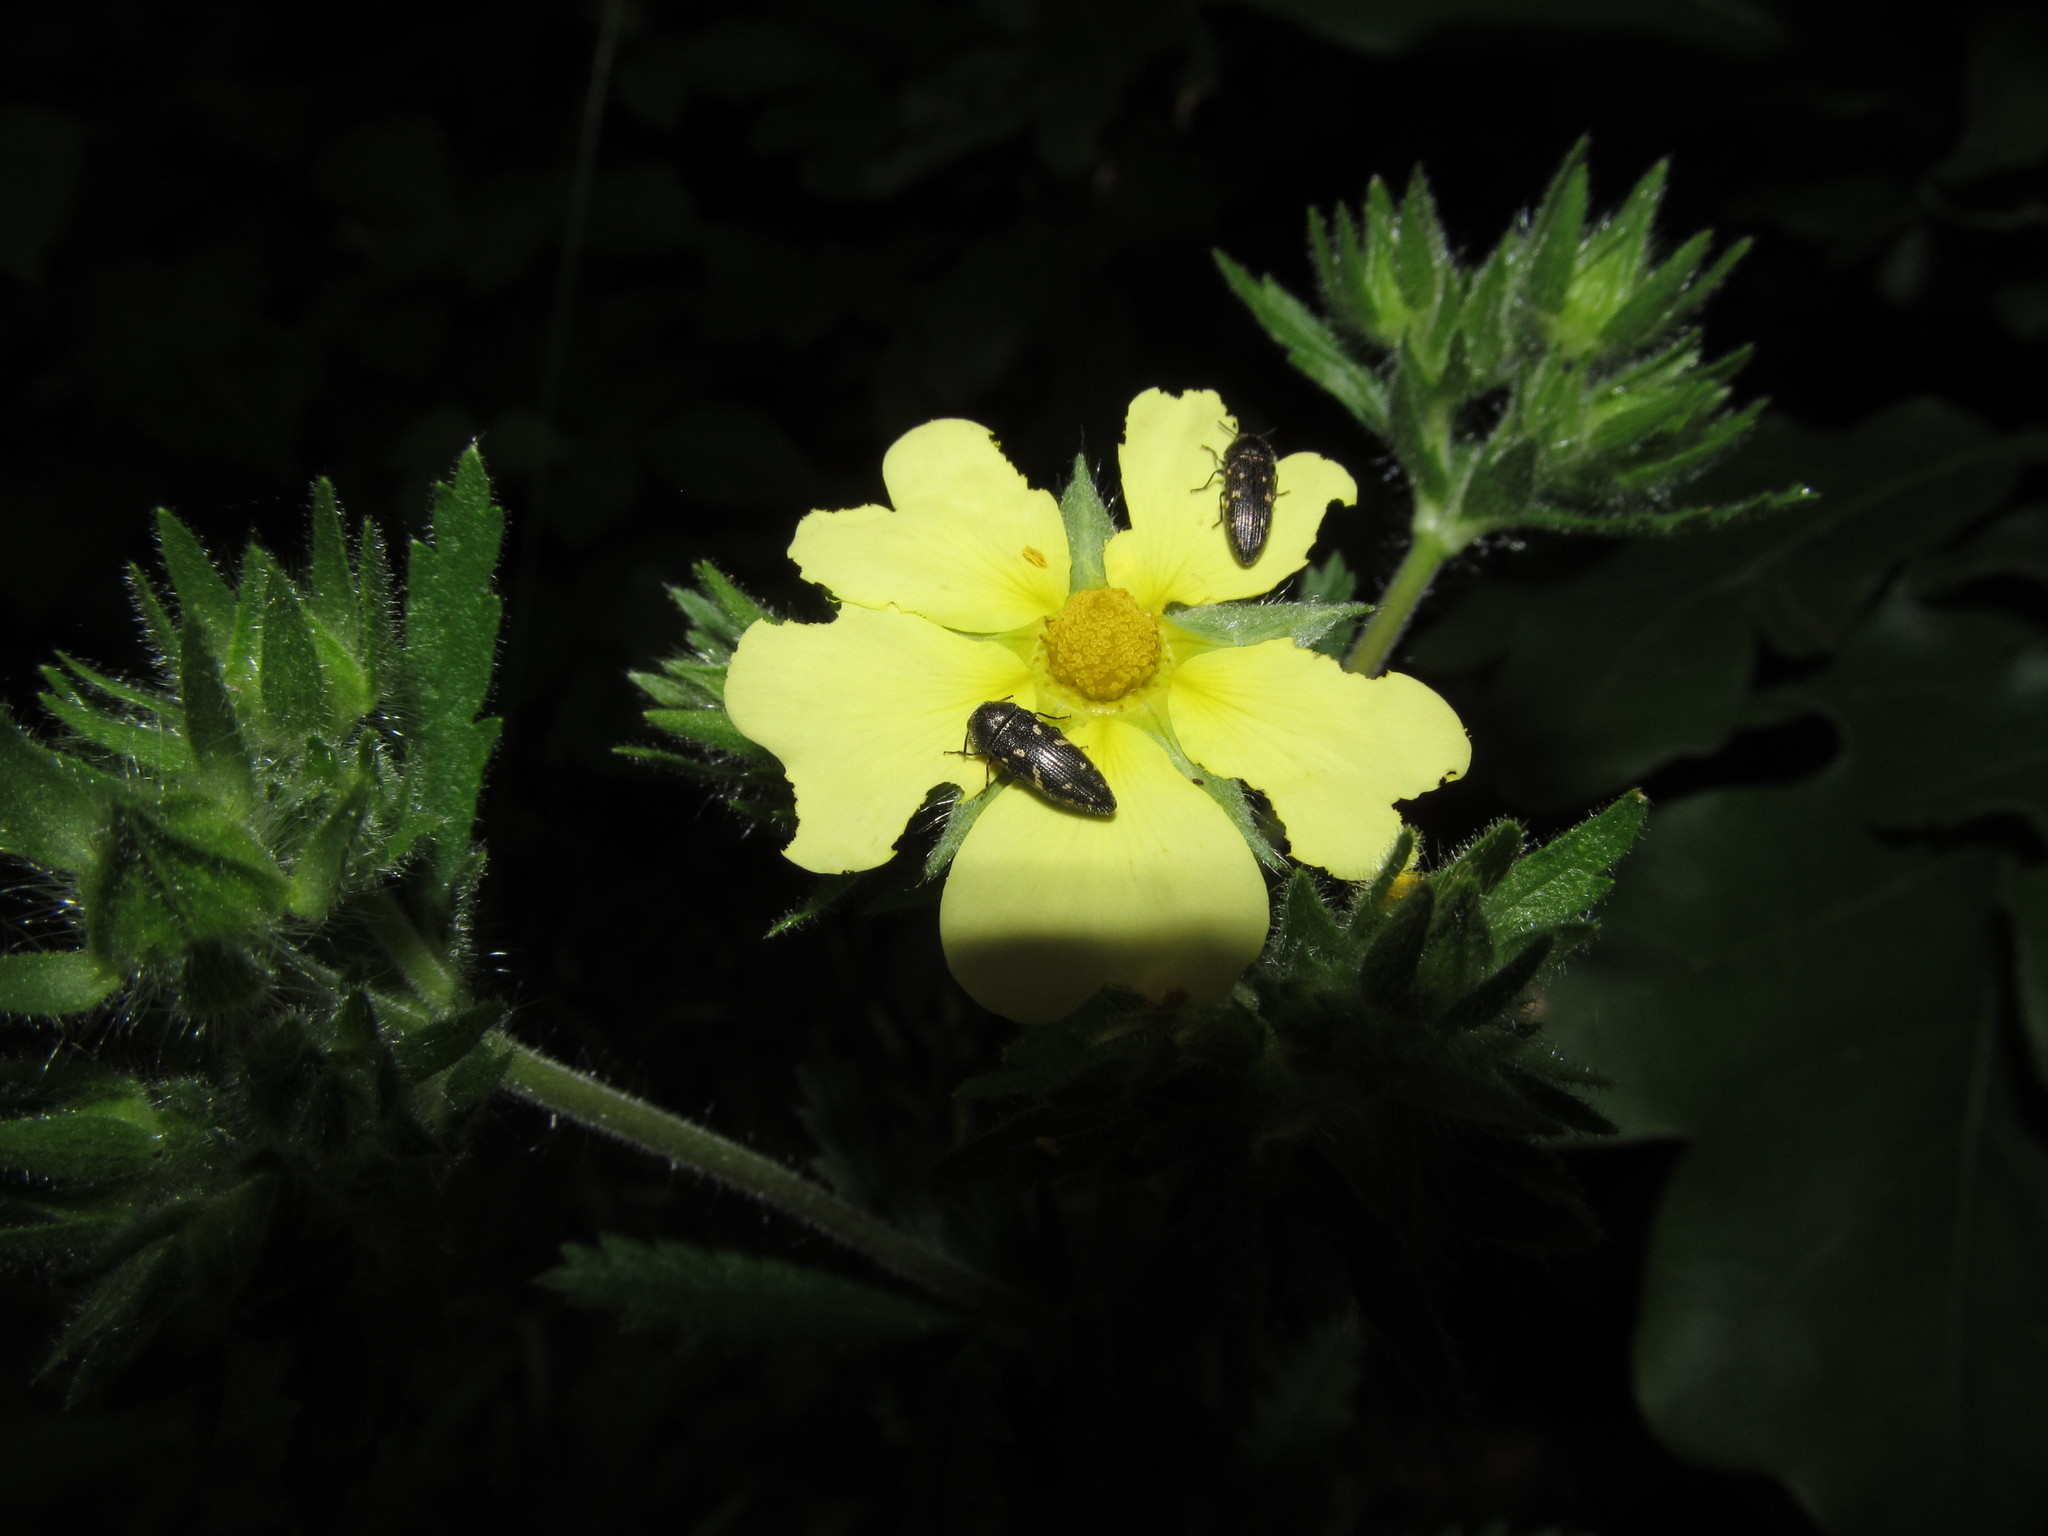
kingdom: Animalia
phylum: Arthropoda
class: Insecta
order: Coleoptera
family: Buprestidae
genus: Acmaeodera
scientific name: Acmaeodera tubulus
